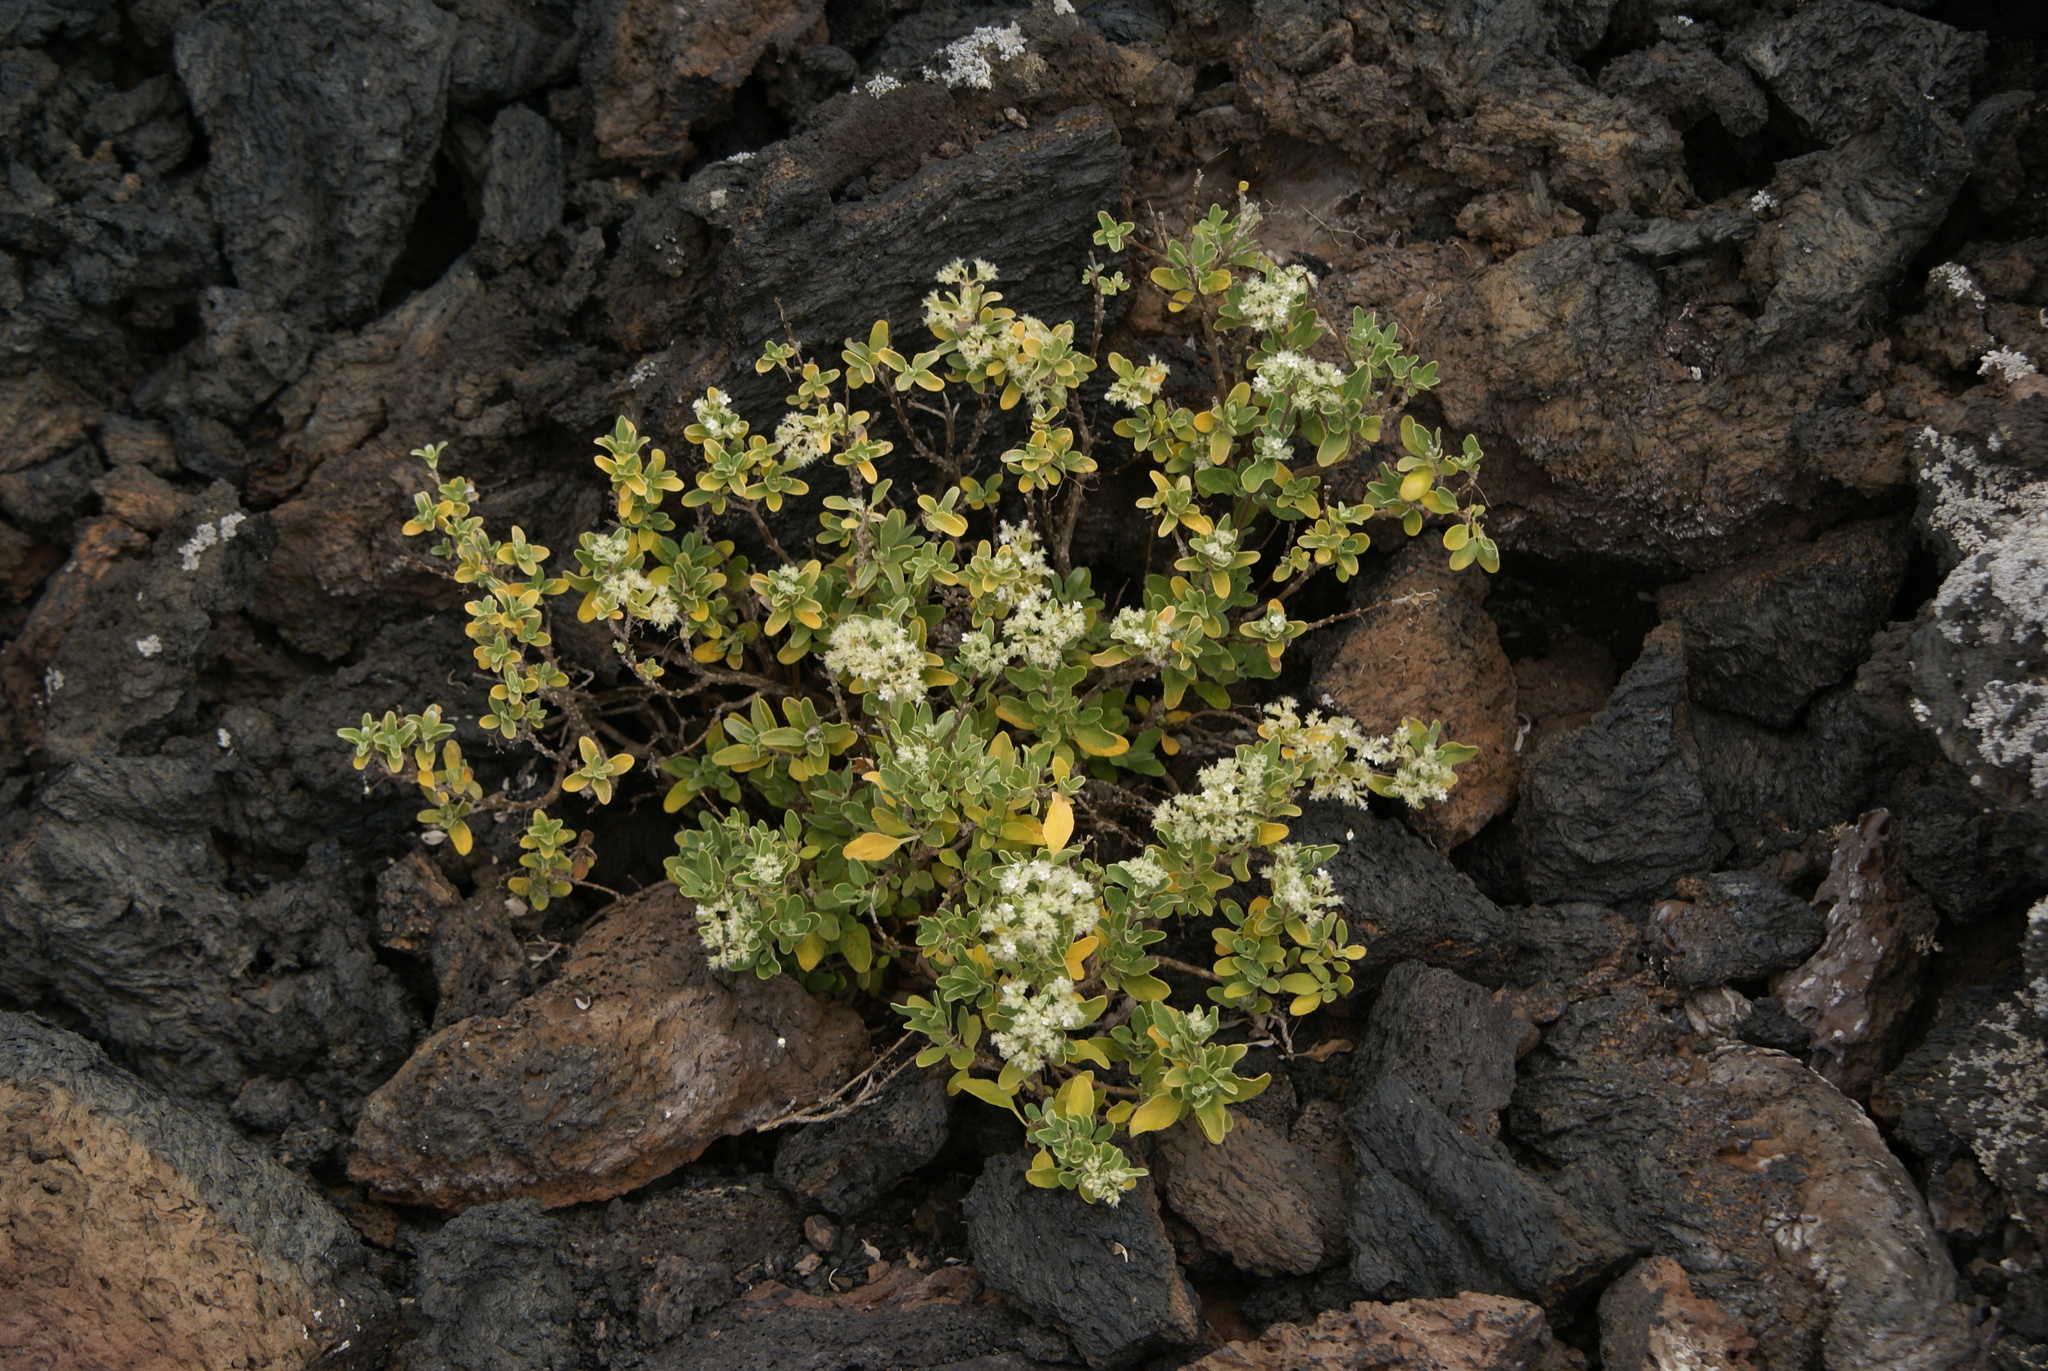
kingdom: Plantae
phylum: Tracheophyta
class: Magnoliopsida
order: Lamiales
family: Lamiaceae
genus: Bystropogon
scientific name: Bystropogon origanifolius
